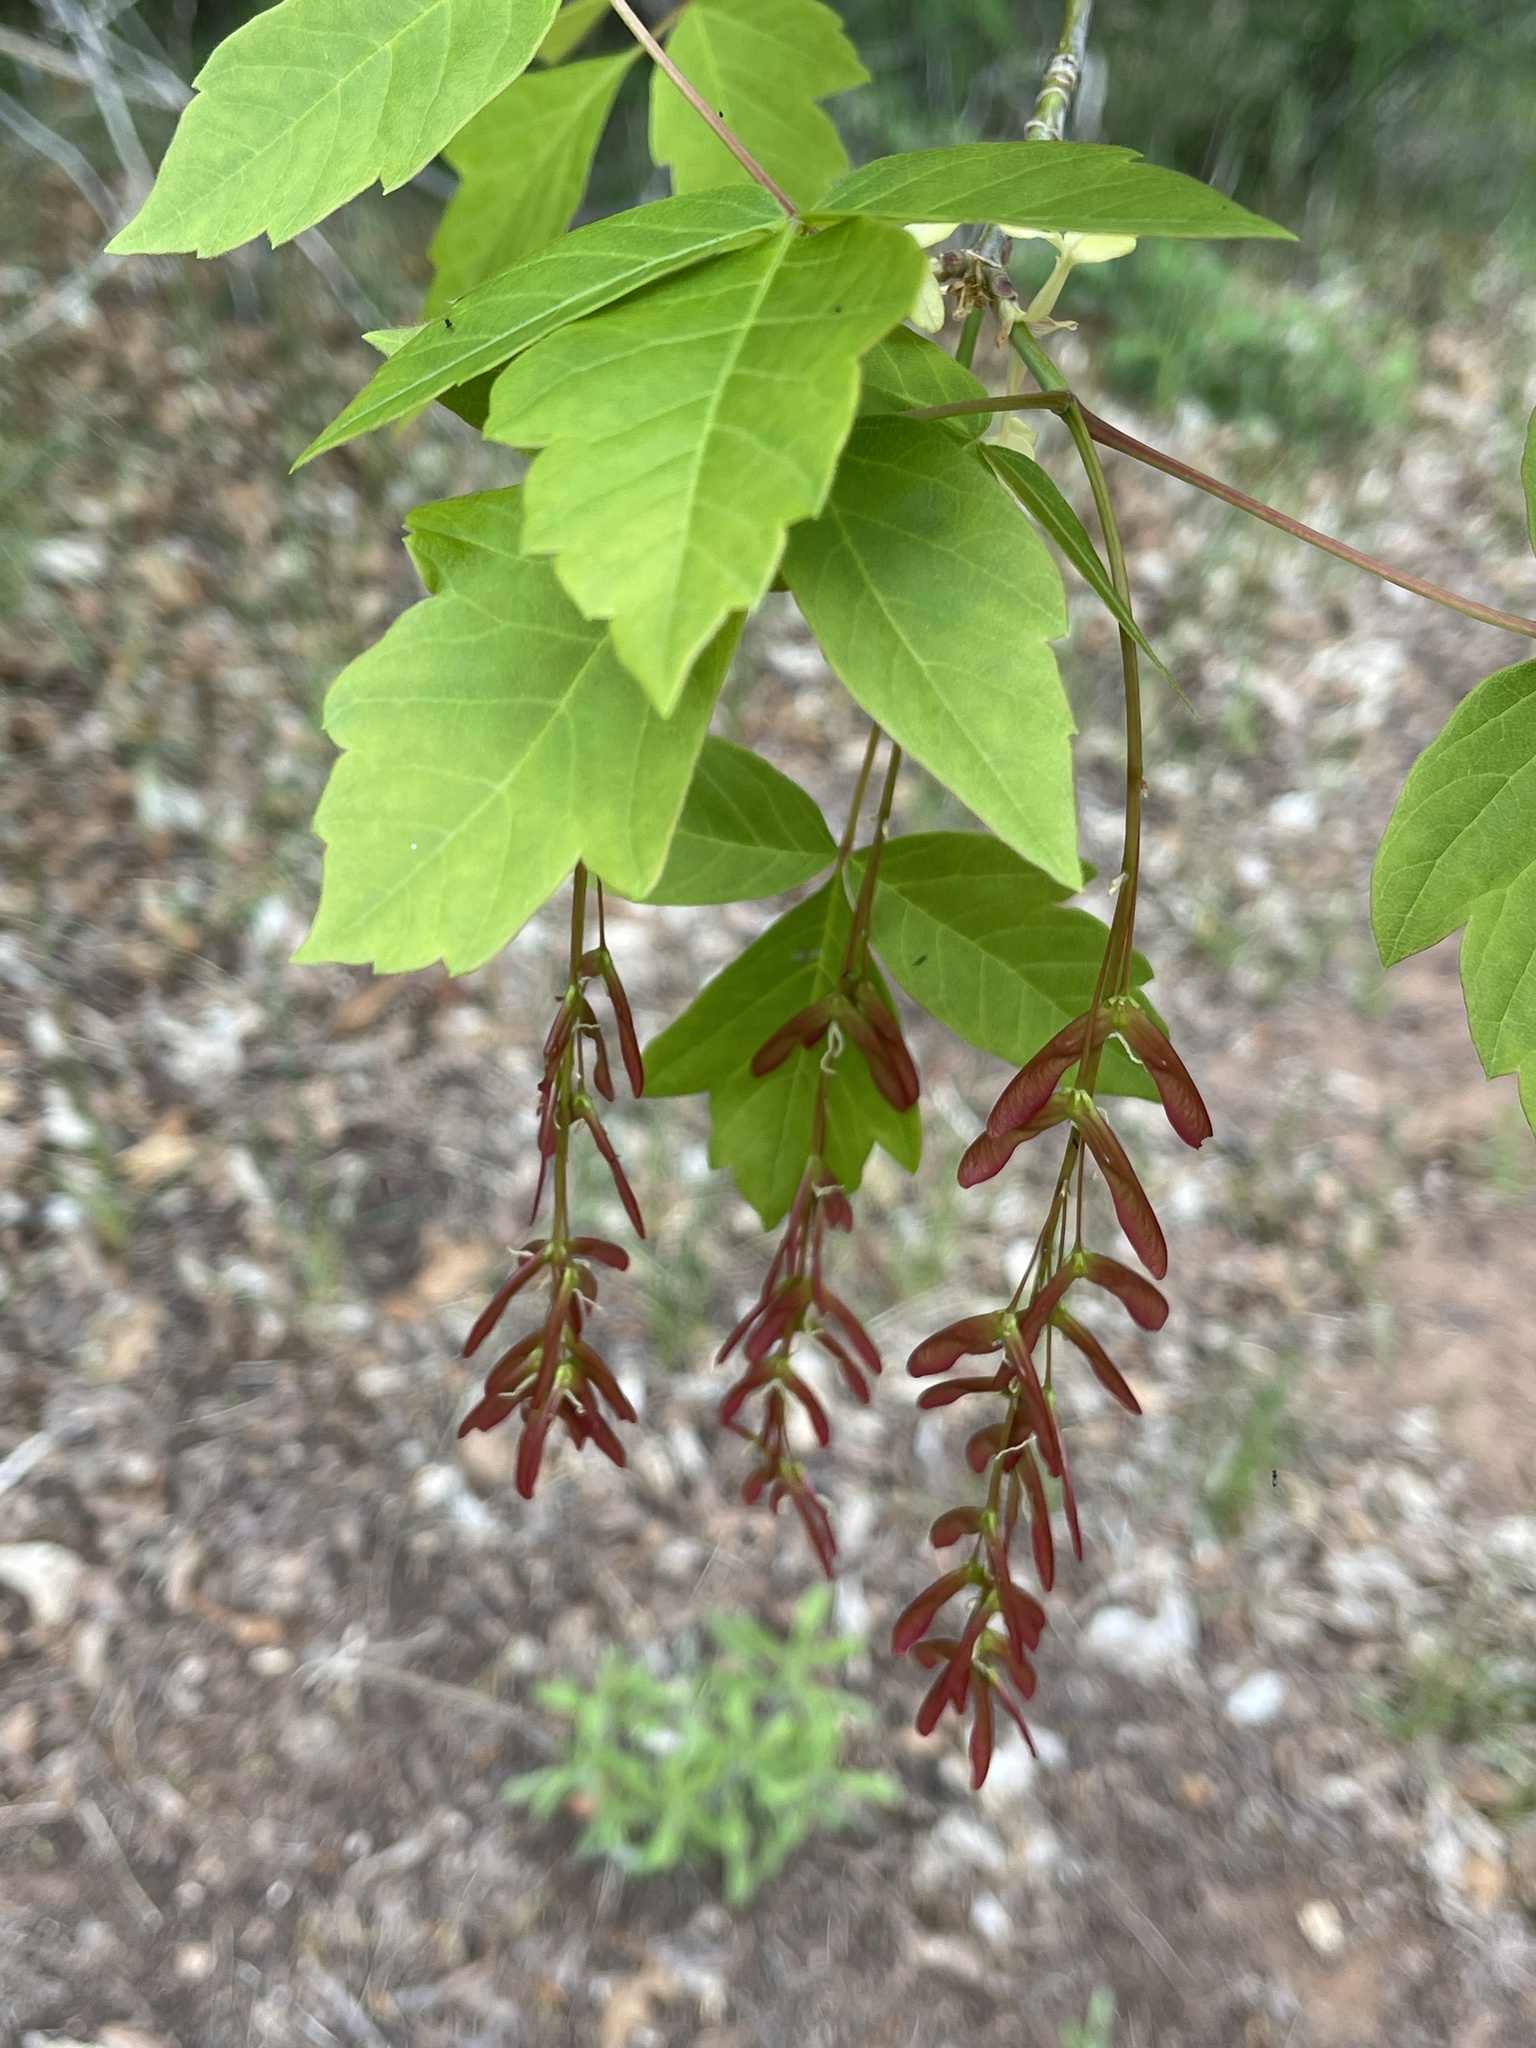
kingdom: Plantae
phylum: Tracheophyta
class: Magnoliopsida
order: Sapindales
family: Sapindaceae
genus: Acer
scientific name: Acer negundo
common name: Ashleaf maple
